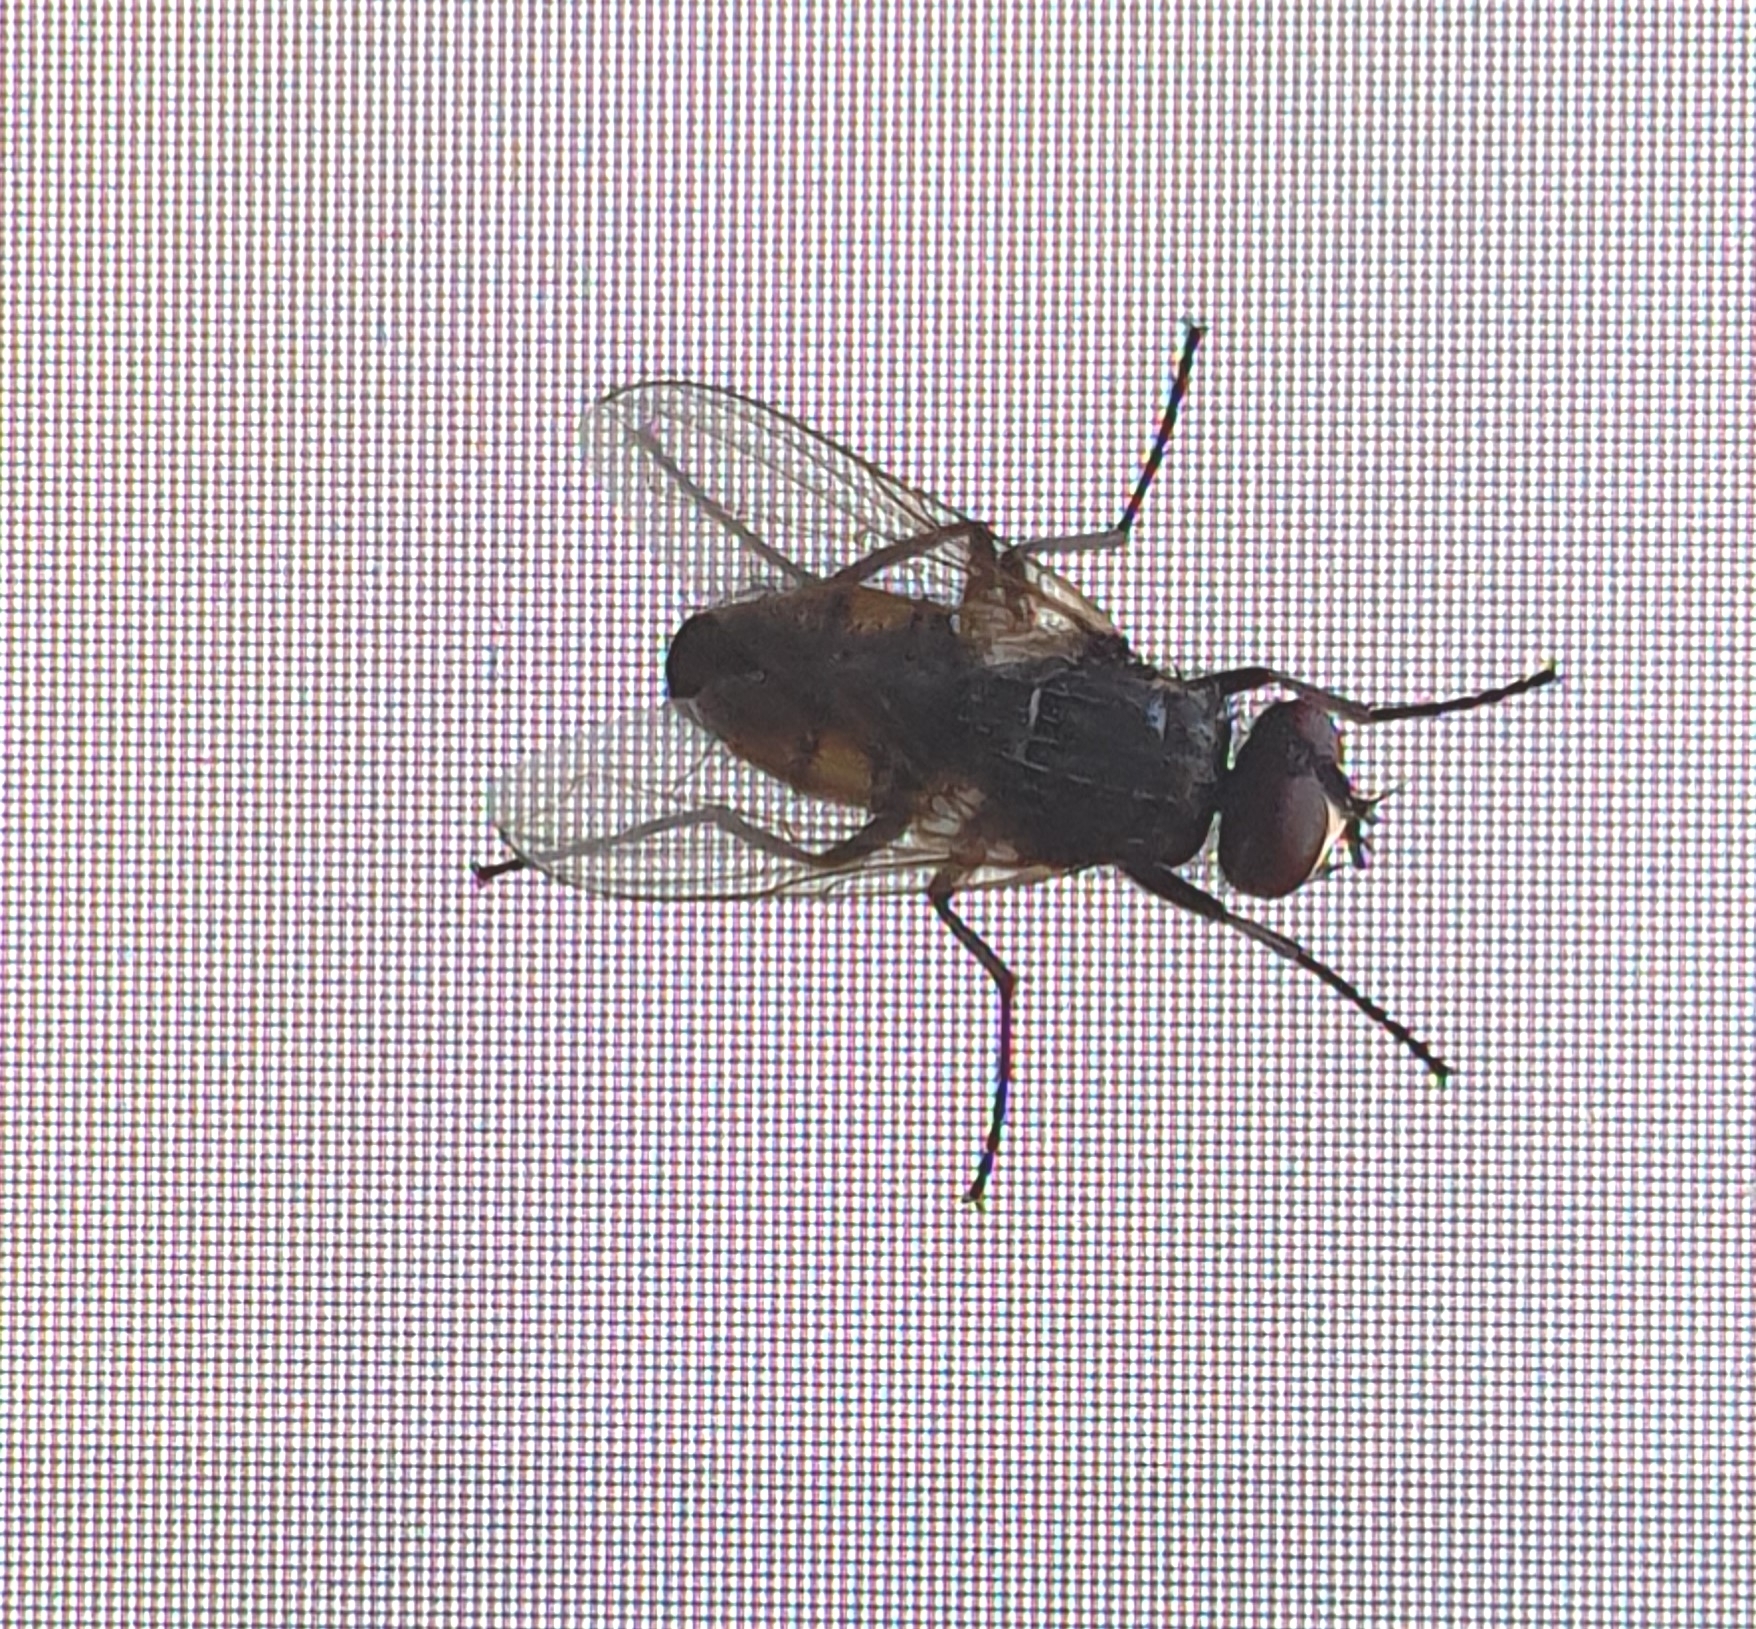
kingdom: Animalia
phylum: Arthropoda
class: Insecta
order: Diptera
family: Muscidae
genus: Musca
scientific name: Musca domestica
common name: House fly
